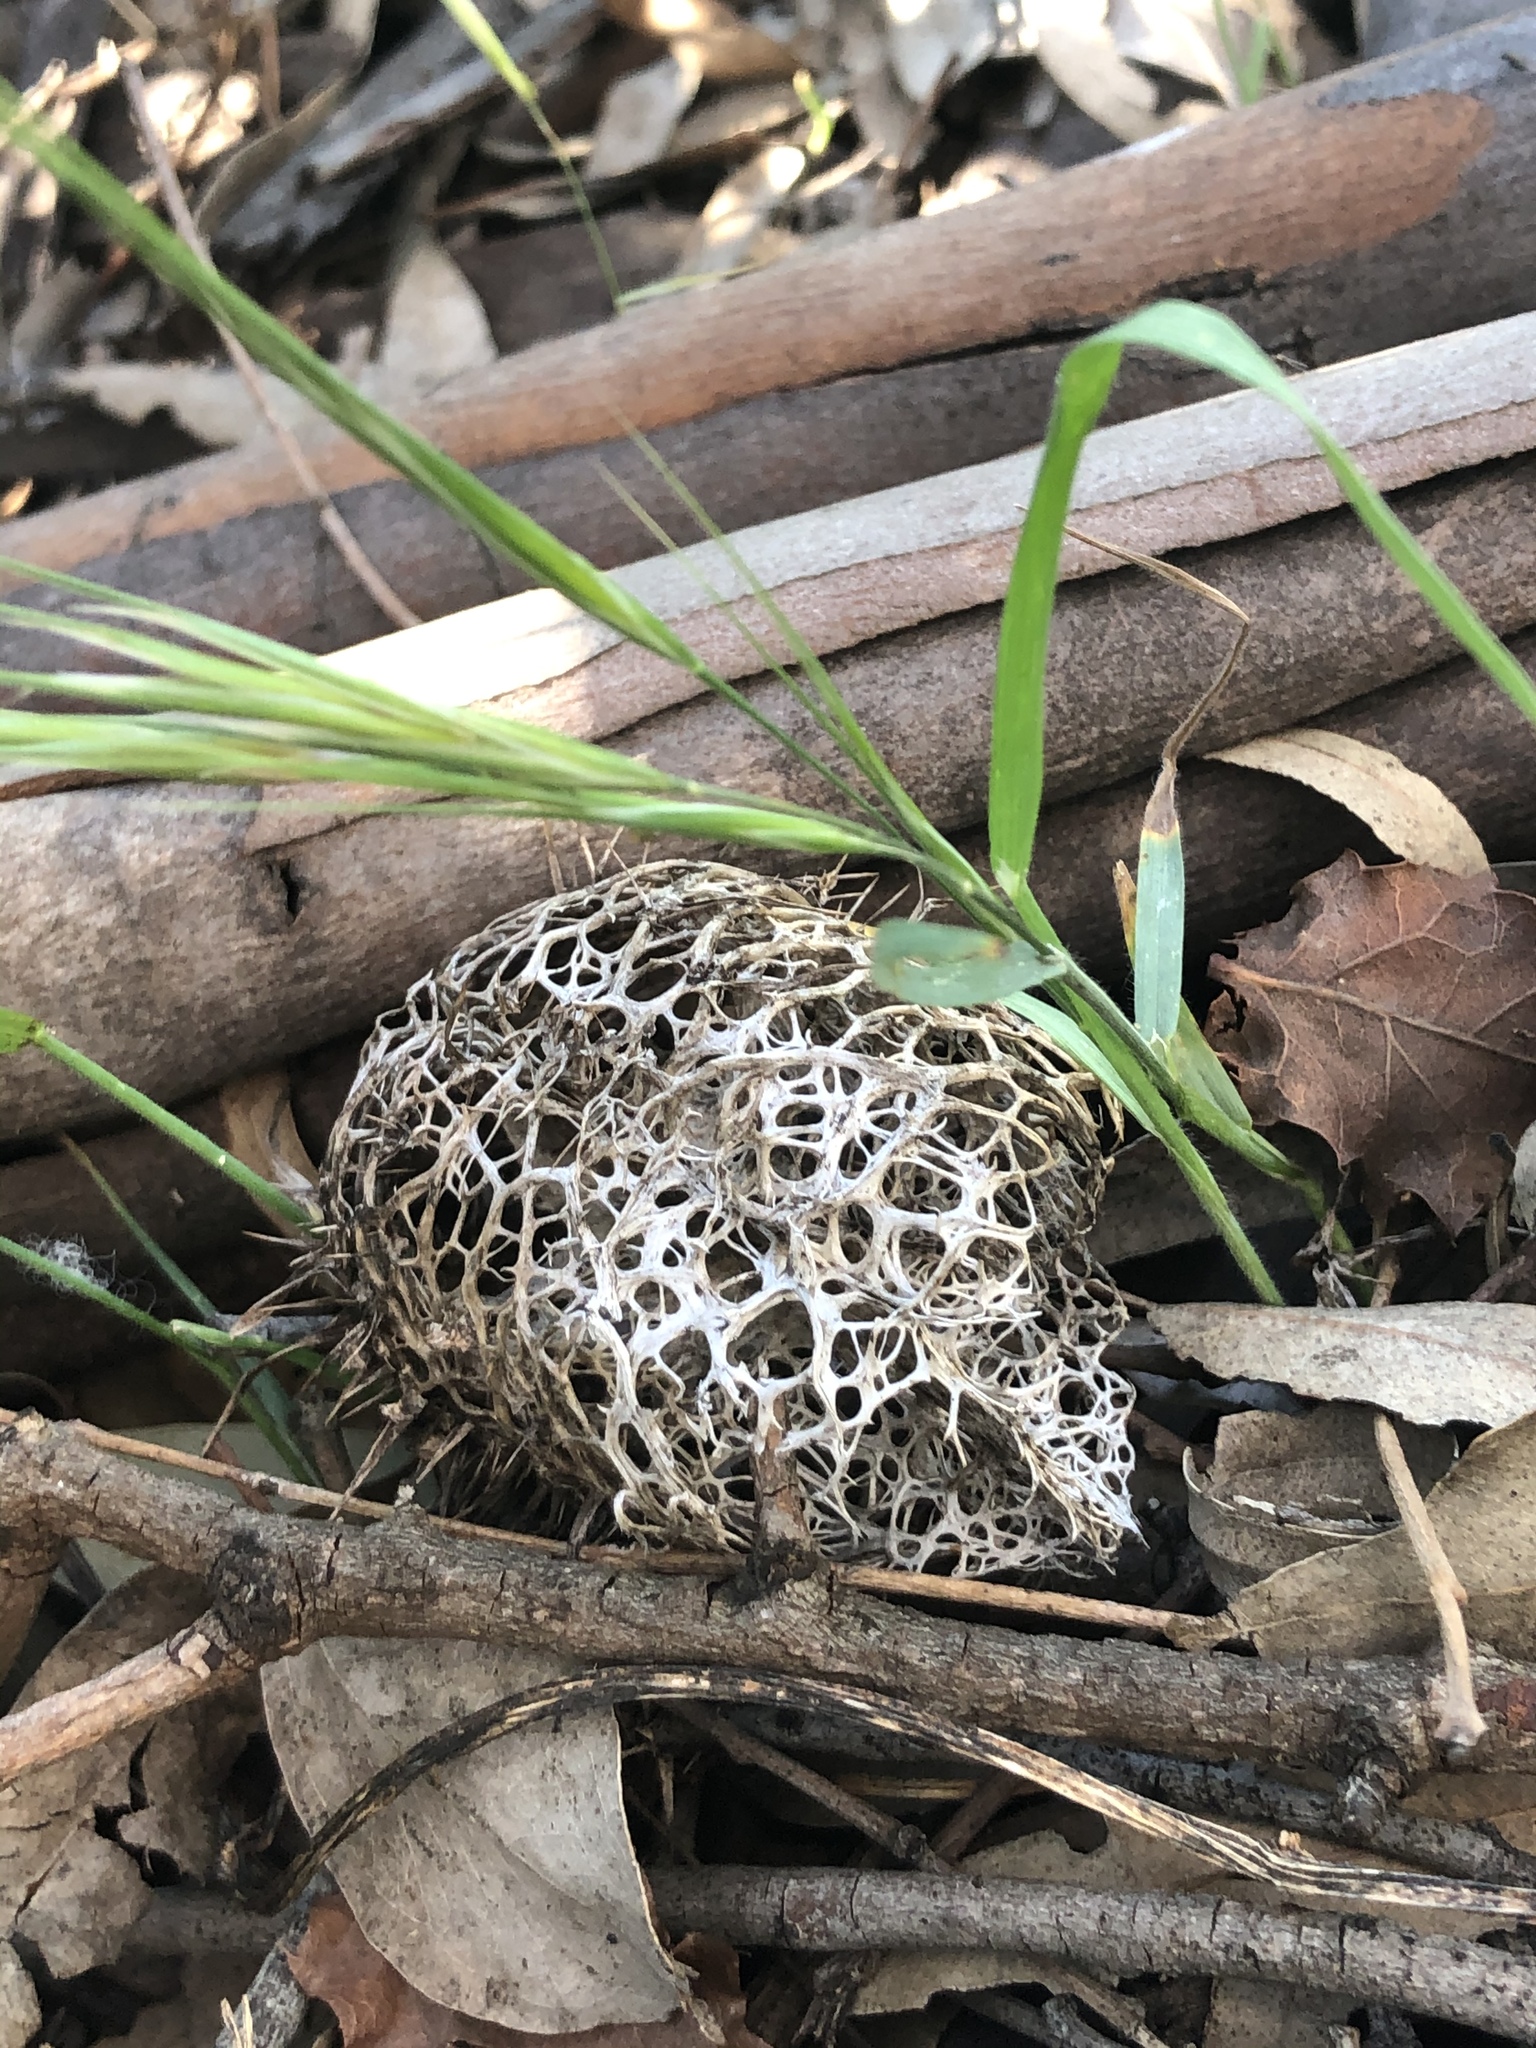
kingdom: Plantae
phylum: Tracheophyta
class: Magnoliopsida
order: Cucurbitales
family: Cucurbitaceae
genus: Marah
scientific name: Marah macrocarpa
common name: Cucamonga manroot
